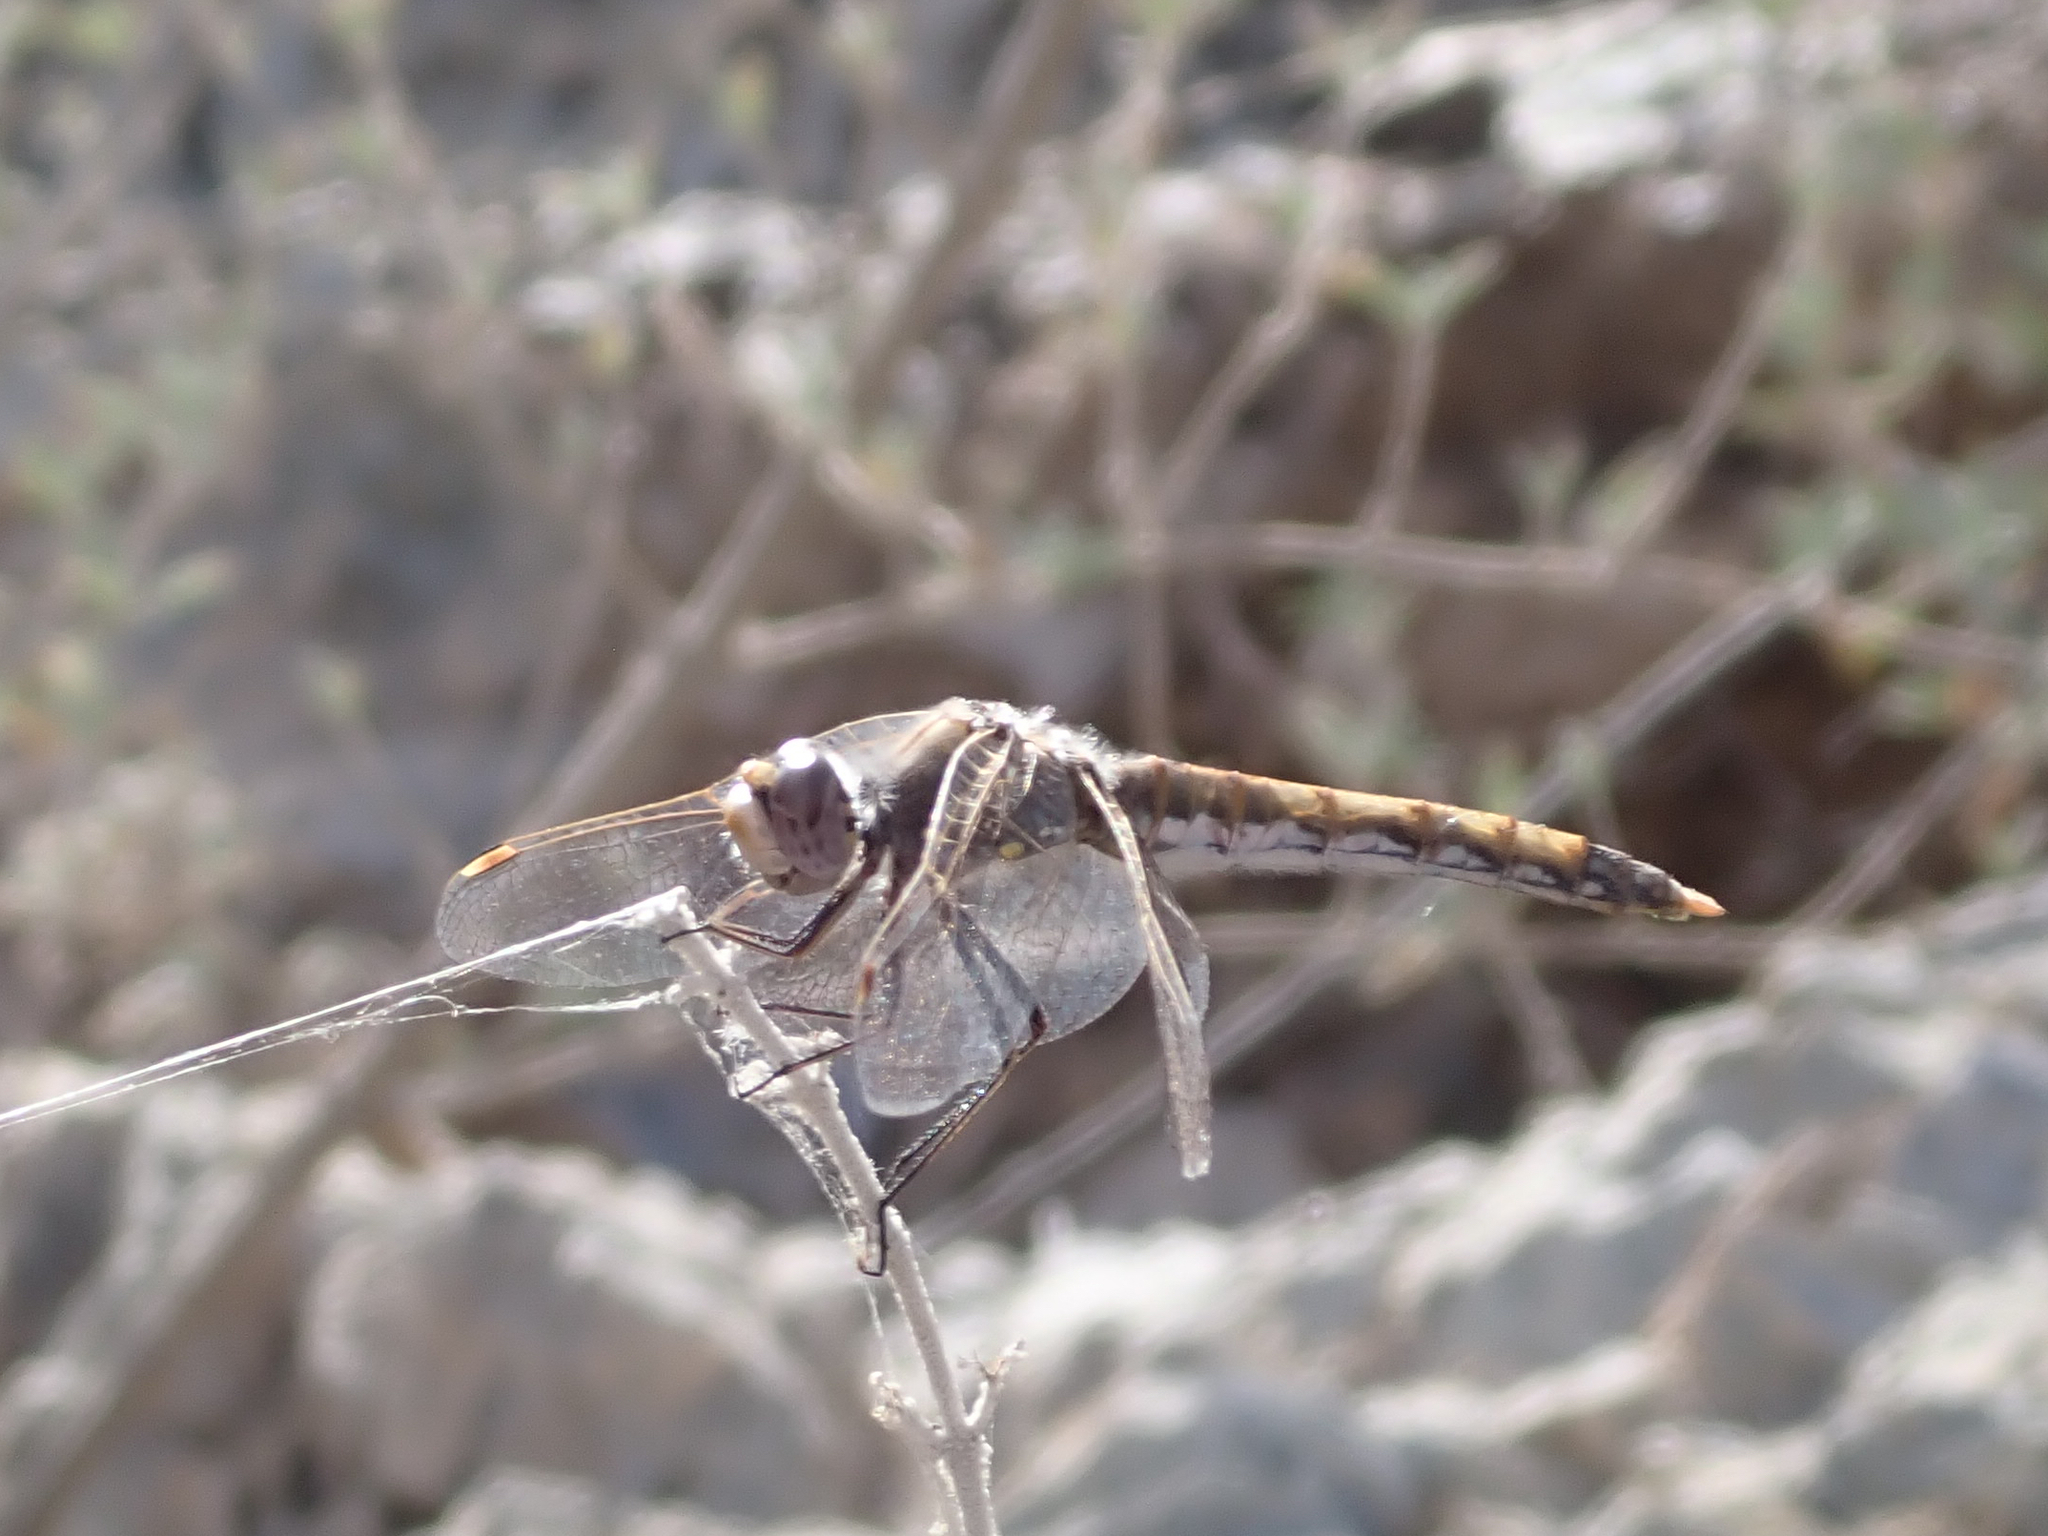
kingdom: Animalia
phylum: Arthropoda
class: Insecta
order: Odonata
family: Libellulidae
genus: Sympetrum
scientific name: Sympetrum corruptum
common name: Variegated meadowhawk
